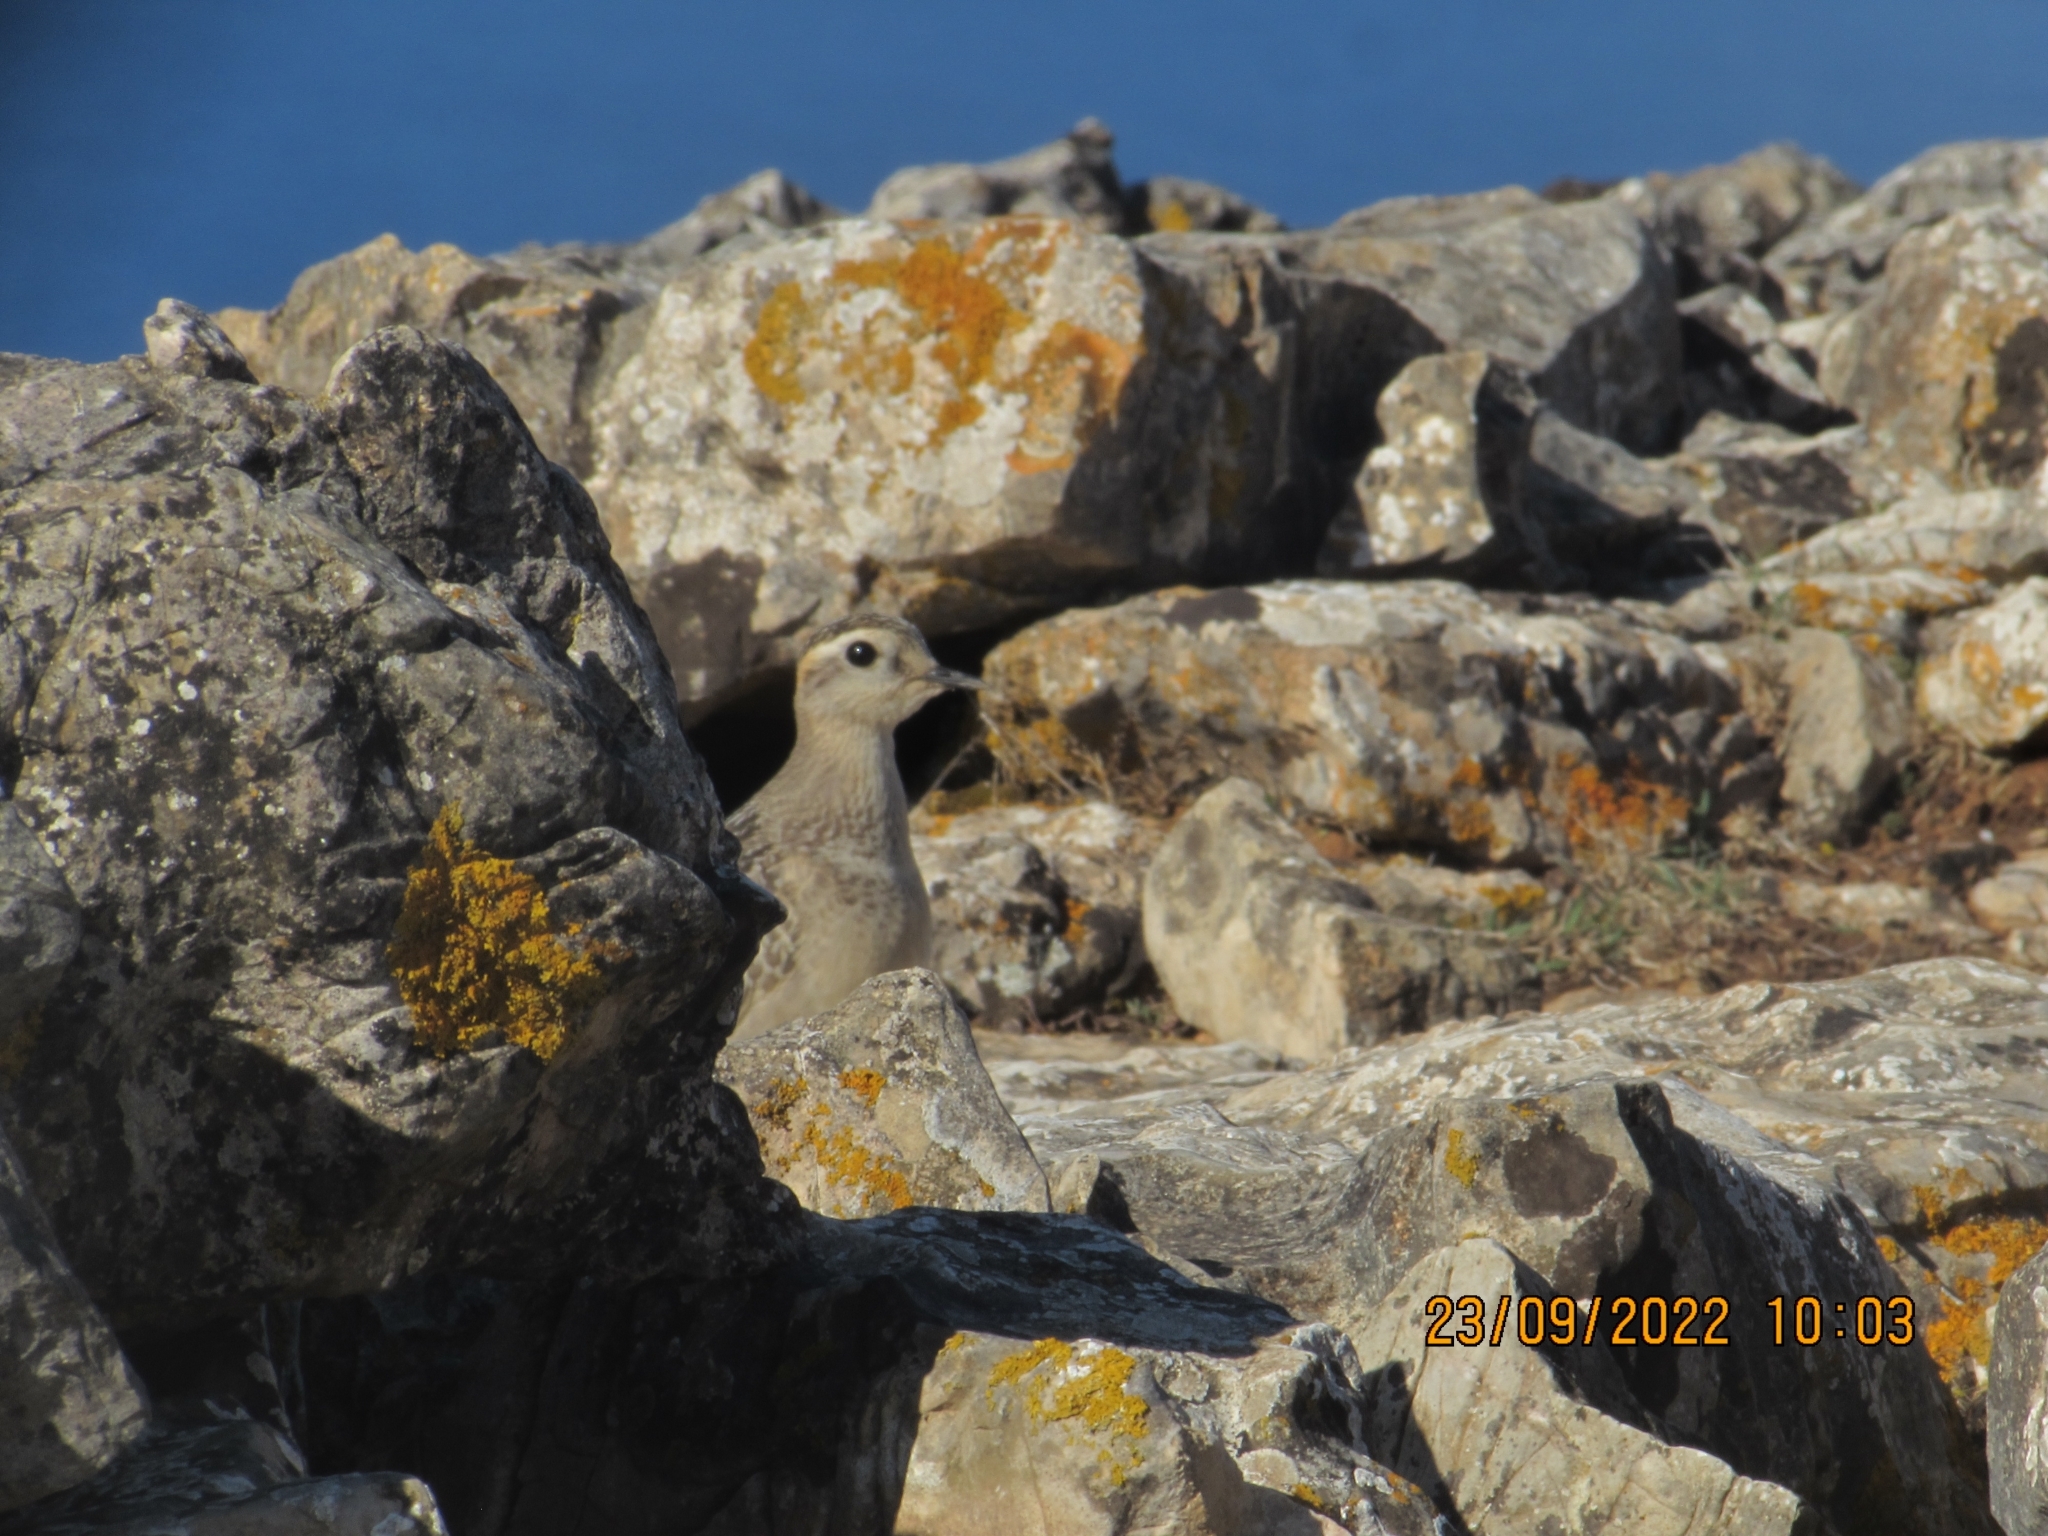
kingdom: Animalia
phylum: Chordata
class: Aves
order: Charadriiformes
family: Charadriidae
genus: Charadrius
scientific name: Charadrius morinellus
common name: Eurasian dotterel
